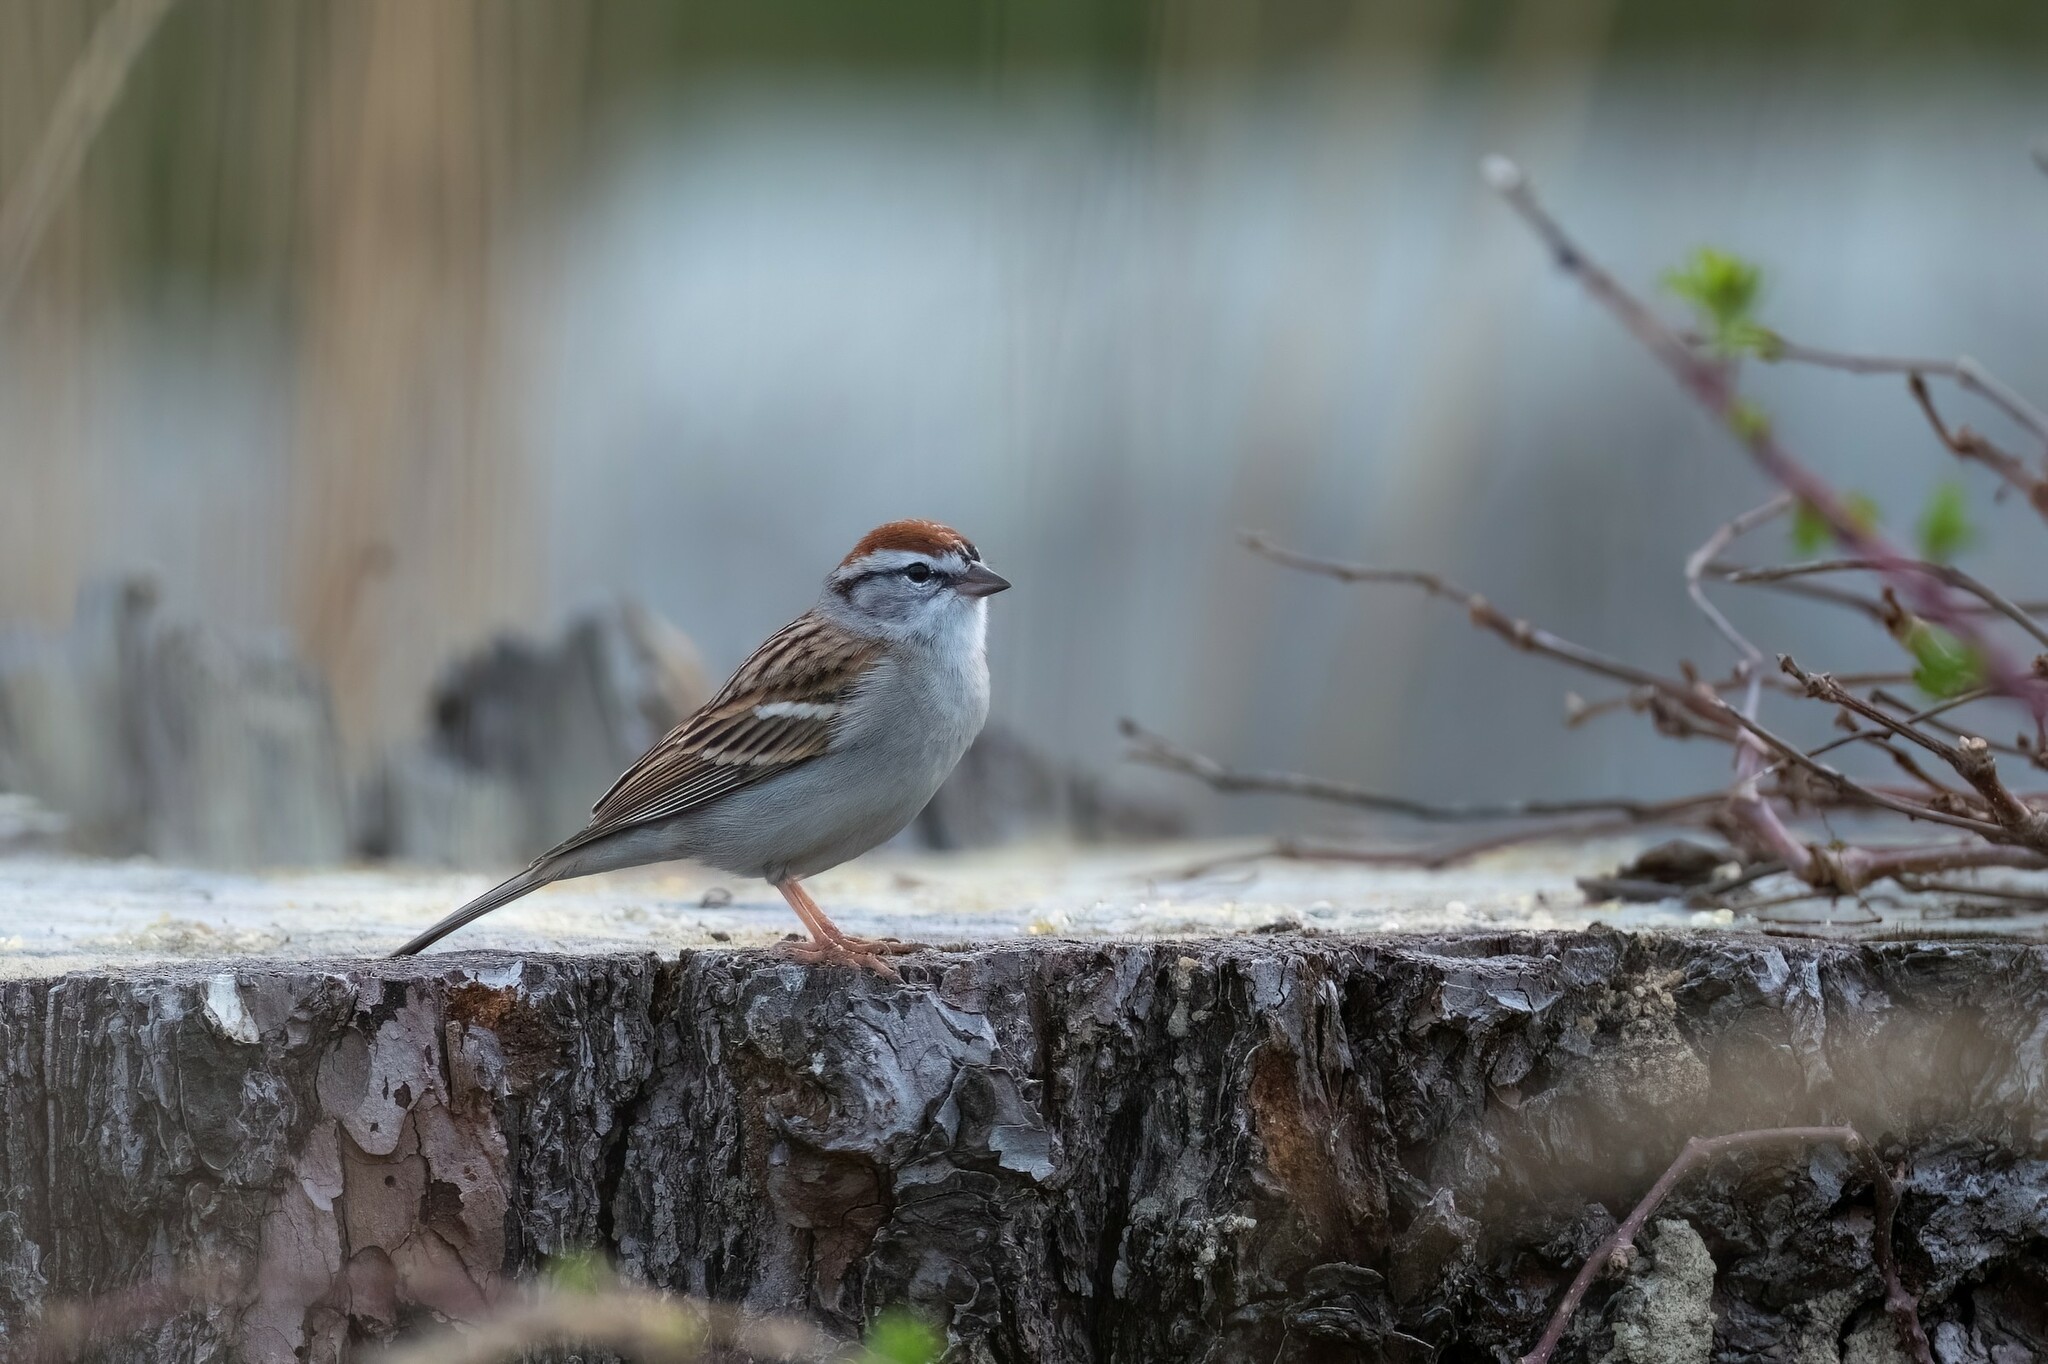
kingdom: Animalia
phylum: Chordata
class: Aves
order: Passeriformes
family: Passerellidae
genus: Spizella
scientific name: Spizella passerina
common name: Chipping sparrow
